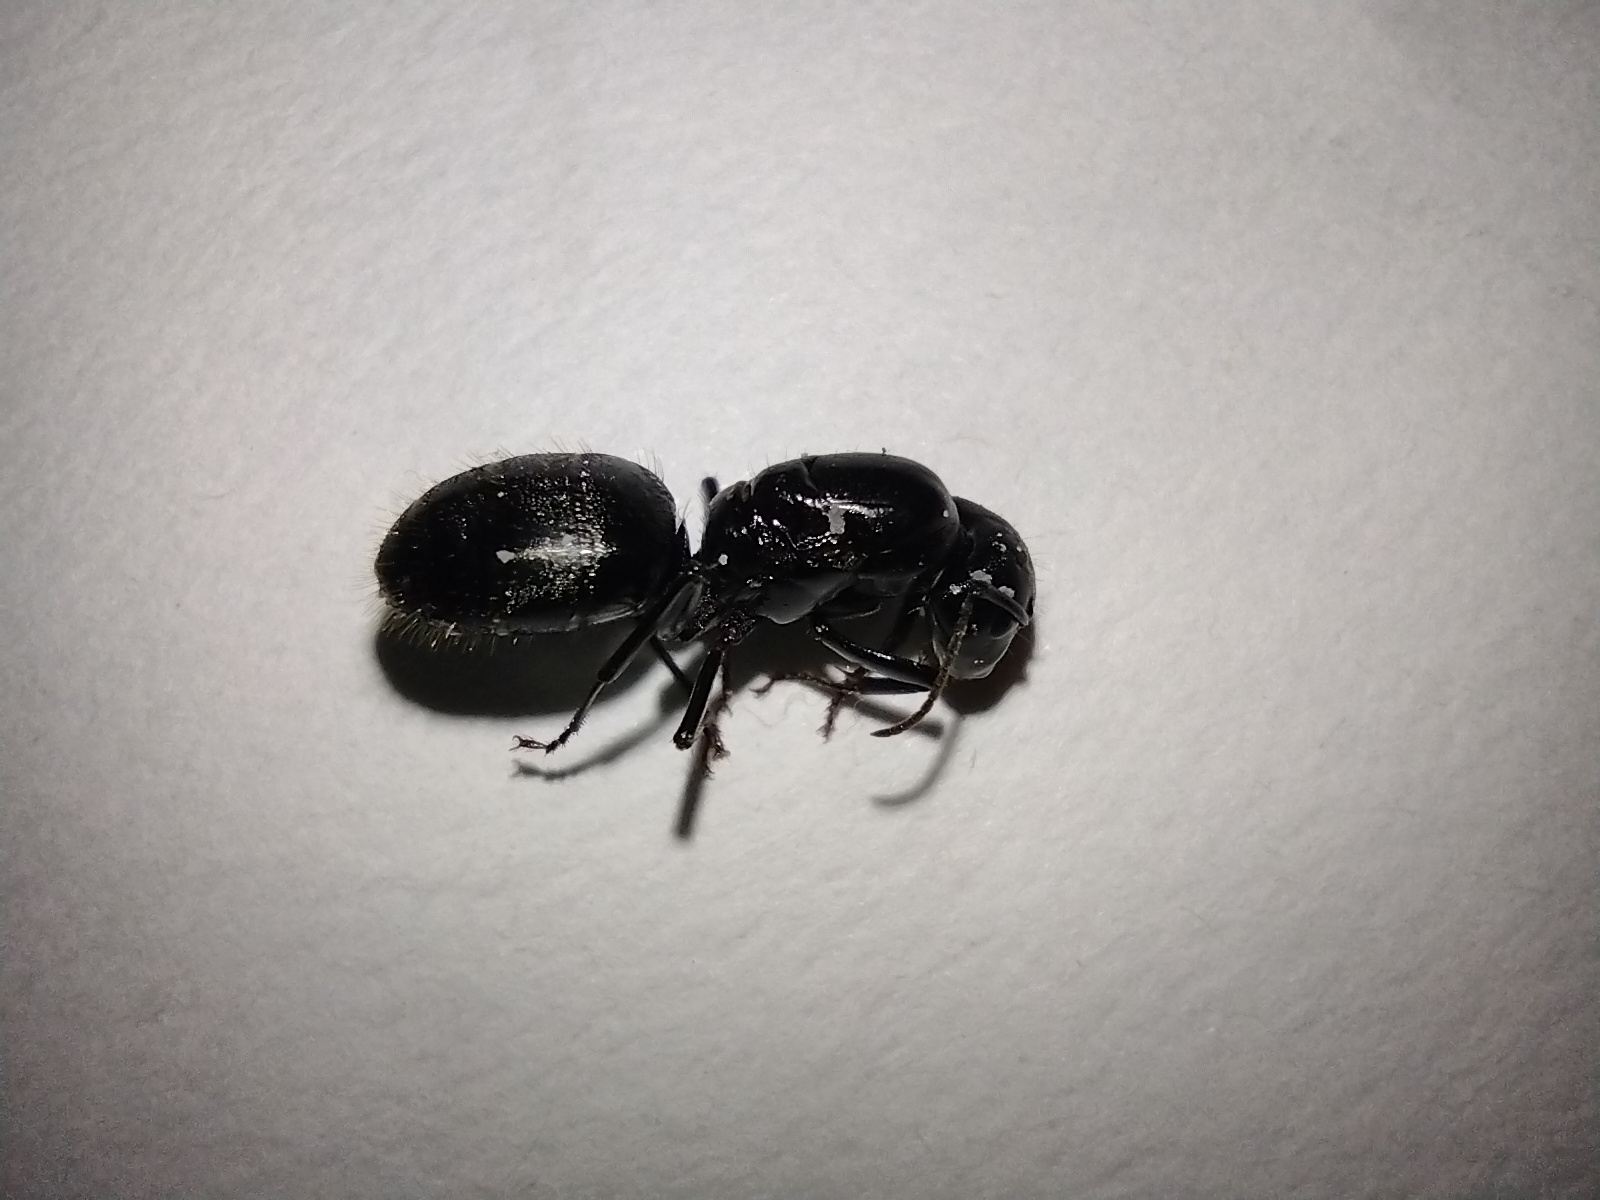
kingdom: Animalia
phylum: Arthropoda
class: Insecta
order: Hymenoptera
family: Formicidae
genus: Camponotus
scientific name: Camponotus pennsylvanicus
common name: Black carpenter ant
